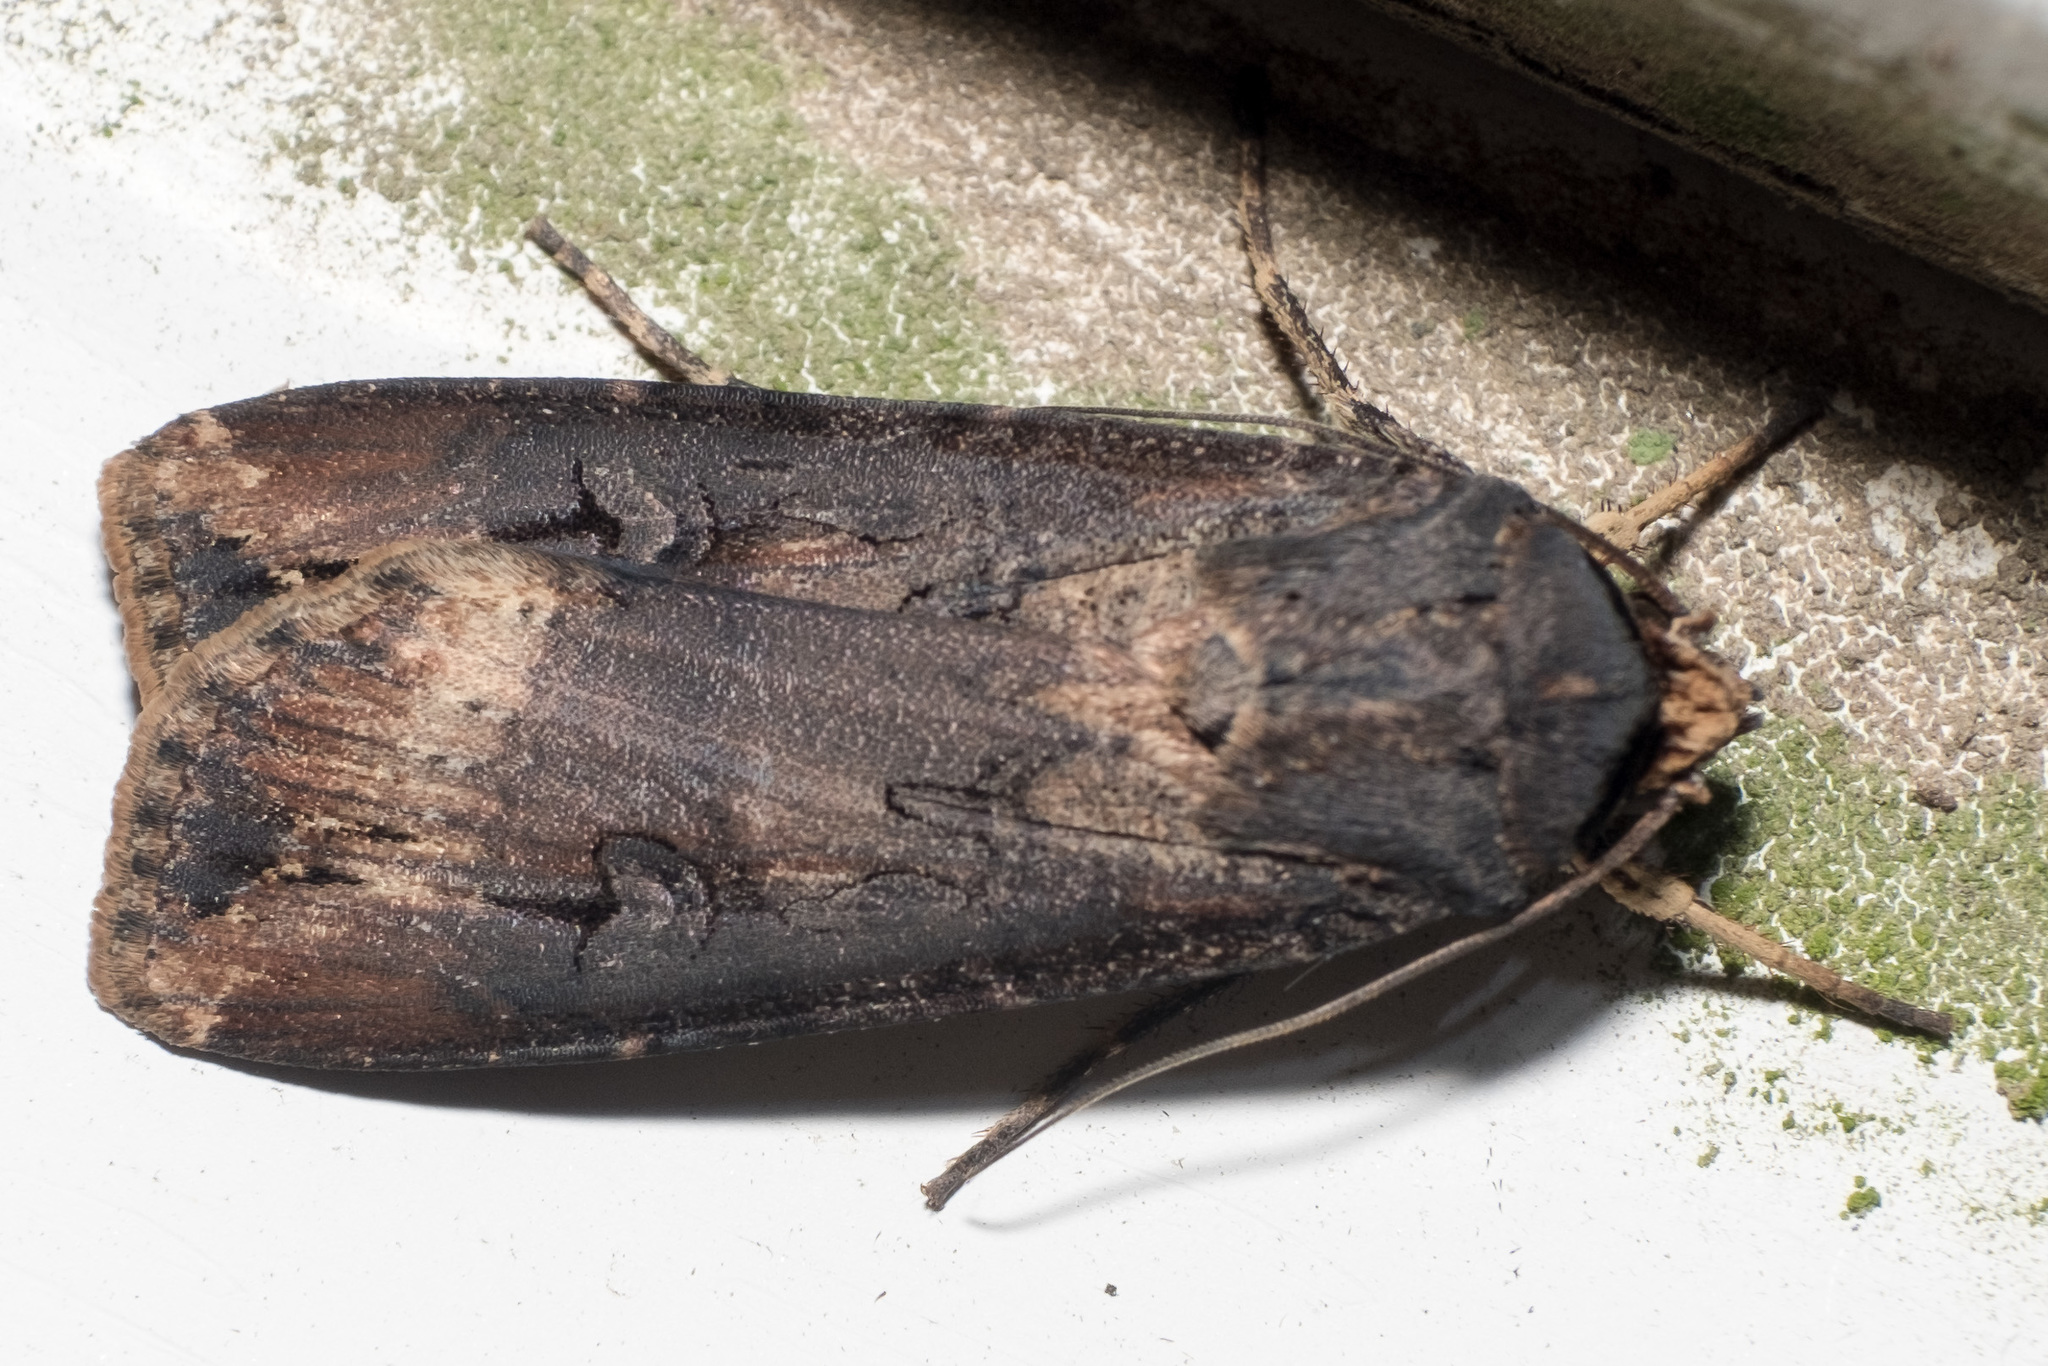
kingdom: Animalia
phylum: Arthropoda
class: Insecta
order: Lepidoptera
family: Noctuidae
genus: Agrotis
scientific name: Agrotis ipsilon
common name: Dark sword-grass
